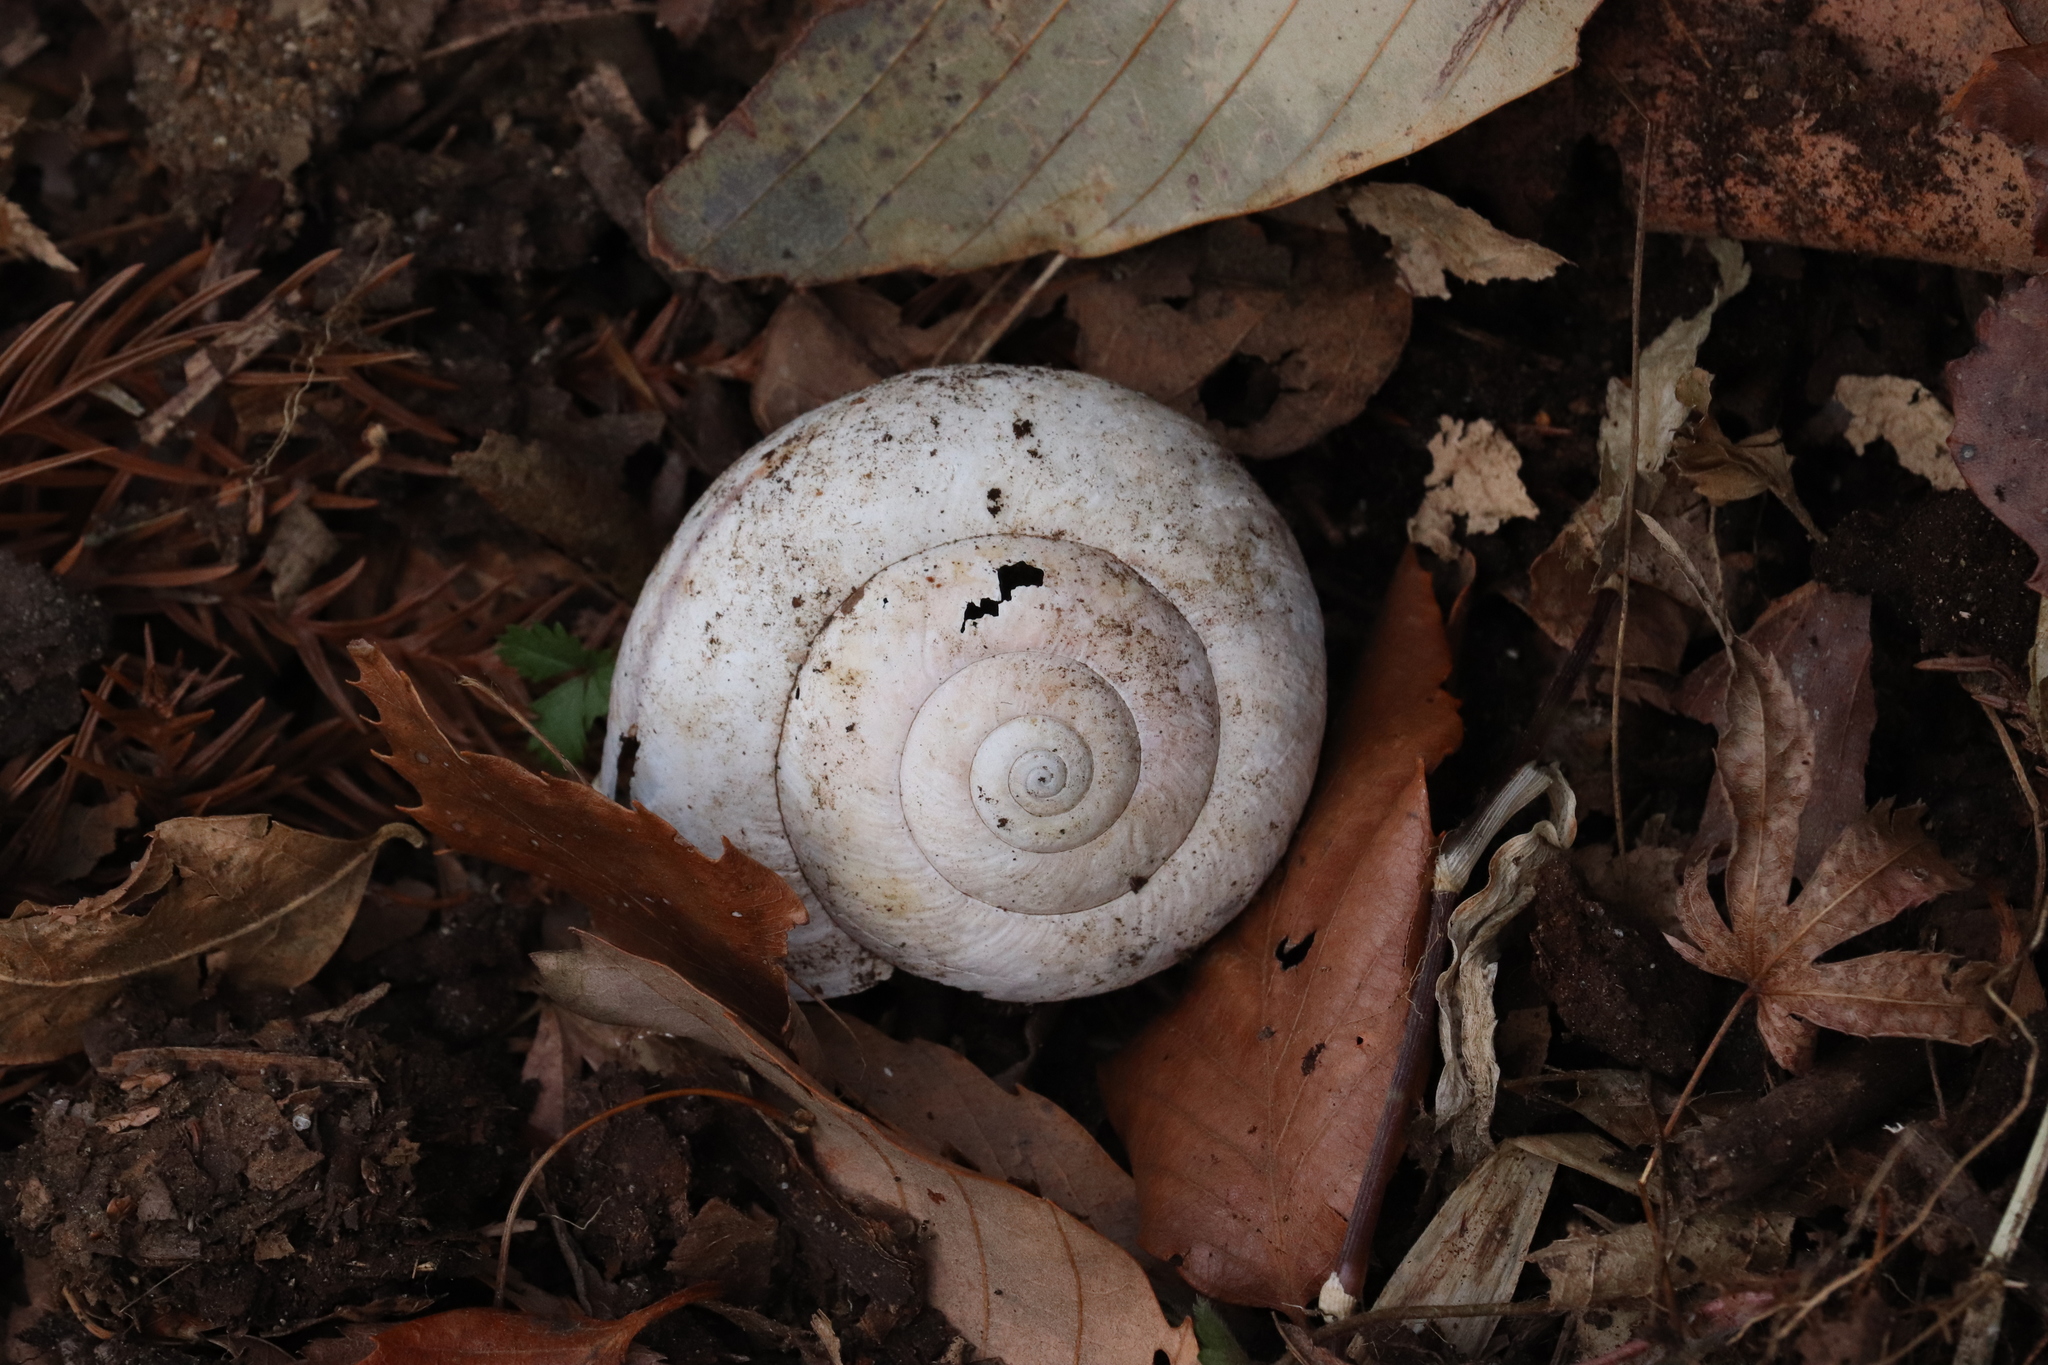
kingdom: Animalia
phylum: Mollusca
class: Gastropoda
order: Stylommatophora
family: Camaenidae
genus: Euhadra
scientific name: Euhadra quaesita
